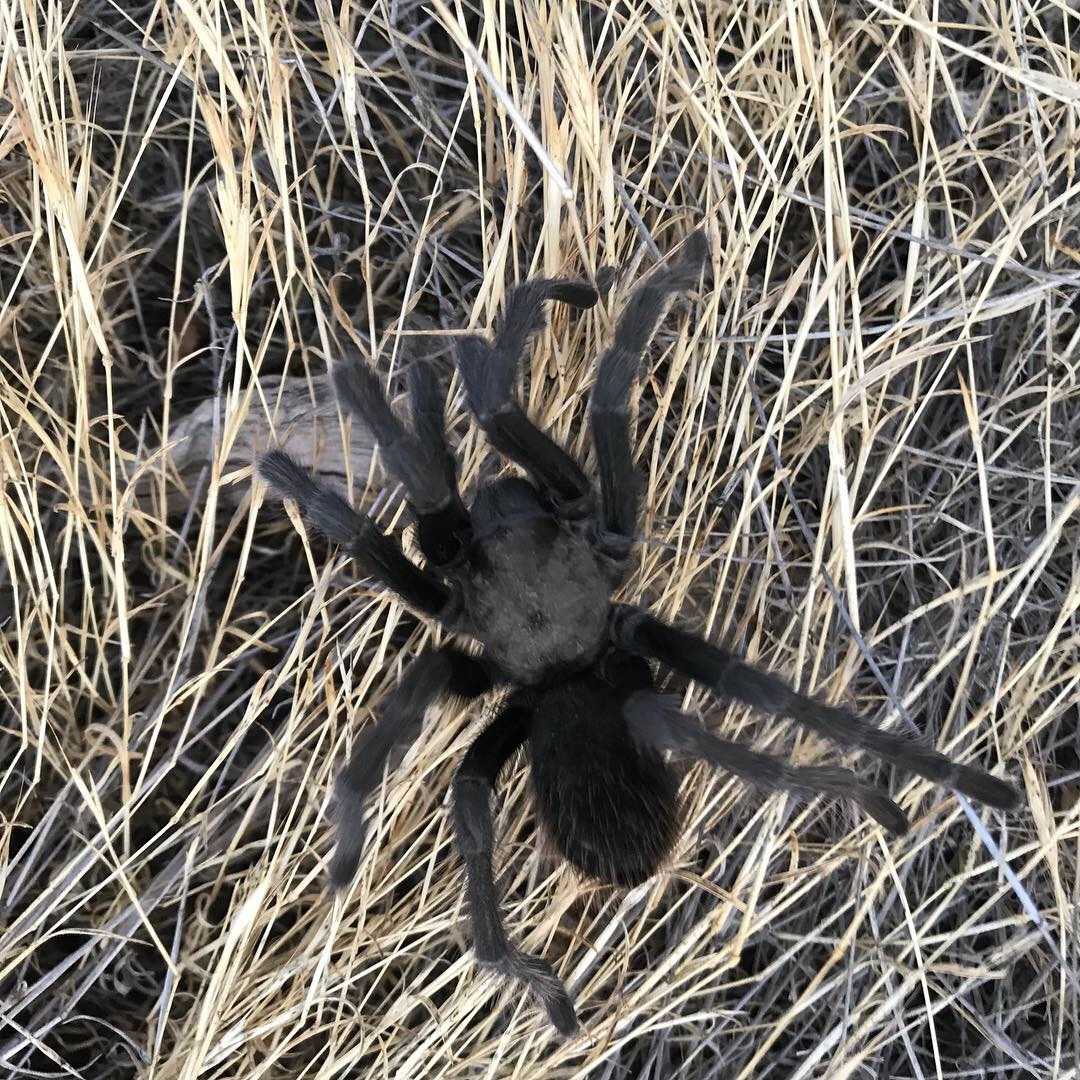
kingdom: Animalia
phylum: Arthropoda
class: Arachnida
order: Araneae
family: Theraphosidae
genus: Aphonopelma
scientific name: Aphonopelma iodius
